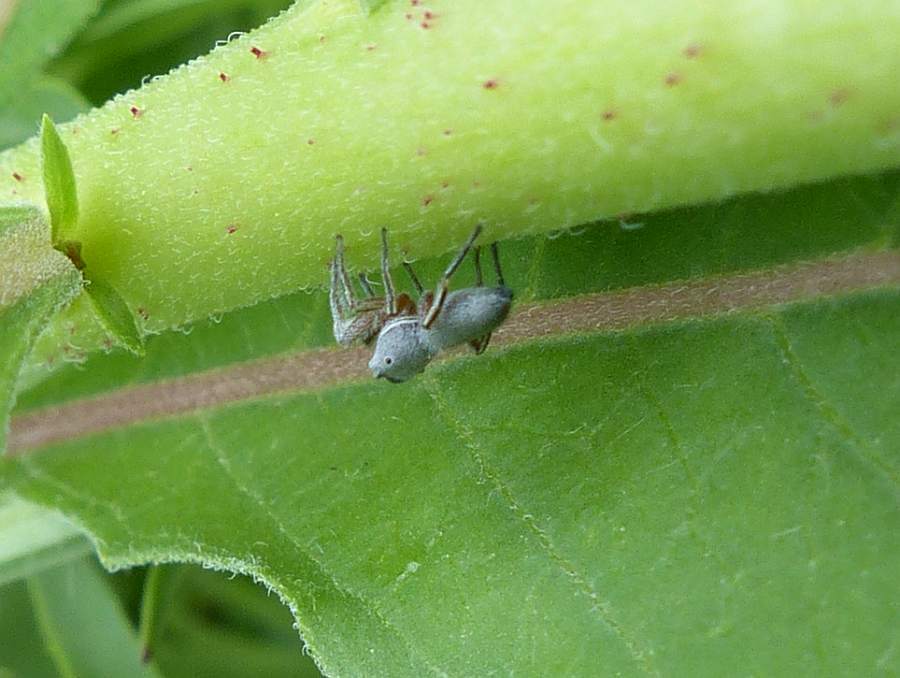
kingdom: Animalia
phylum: Arthropoda
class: Arachnida
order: Araneae
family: Salticidae
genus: Tutelina
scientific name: Tutelina similis
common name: Thick-spined jumping spider
